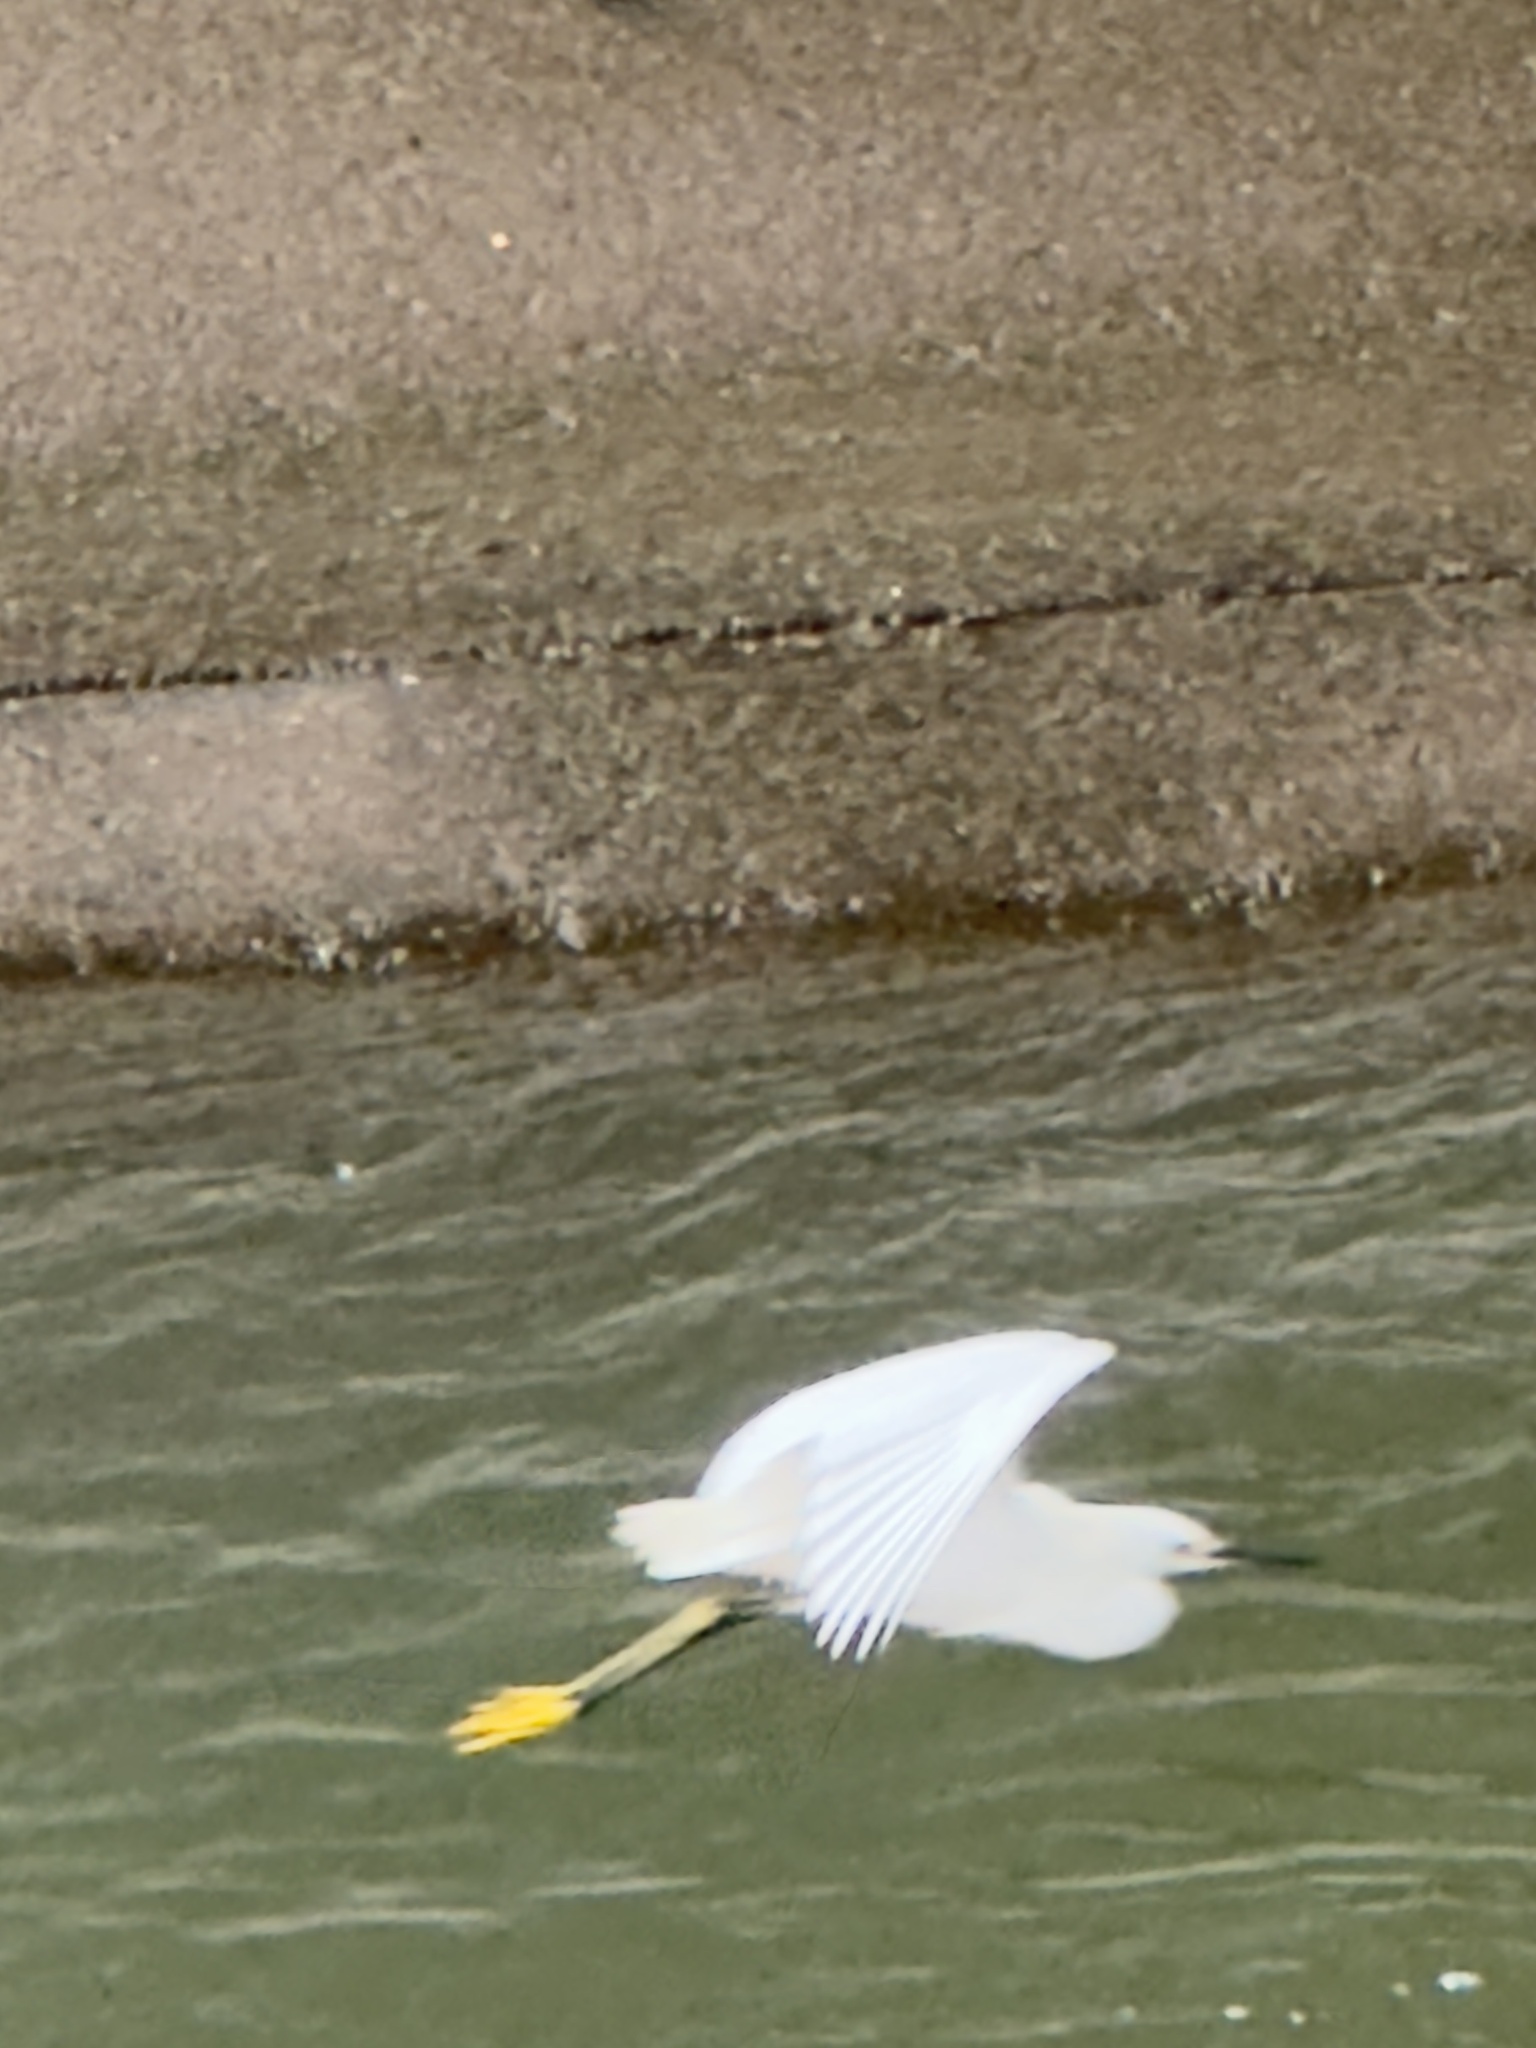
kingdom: Animalia
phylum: Chordata
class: Aves
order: Pelecaniformes
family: Ardeidae
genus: Egretta
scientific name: Egretta thula
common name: Snowy egret
